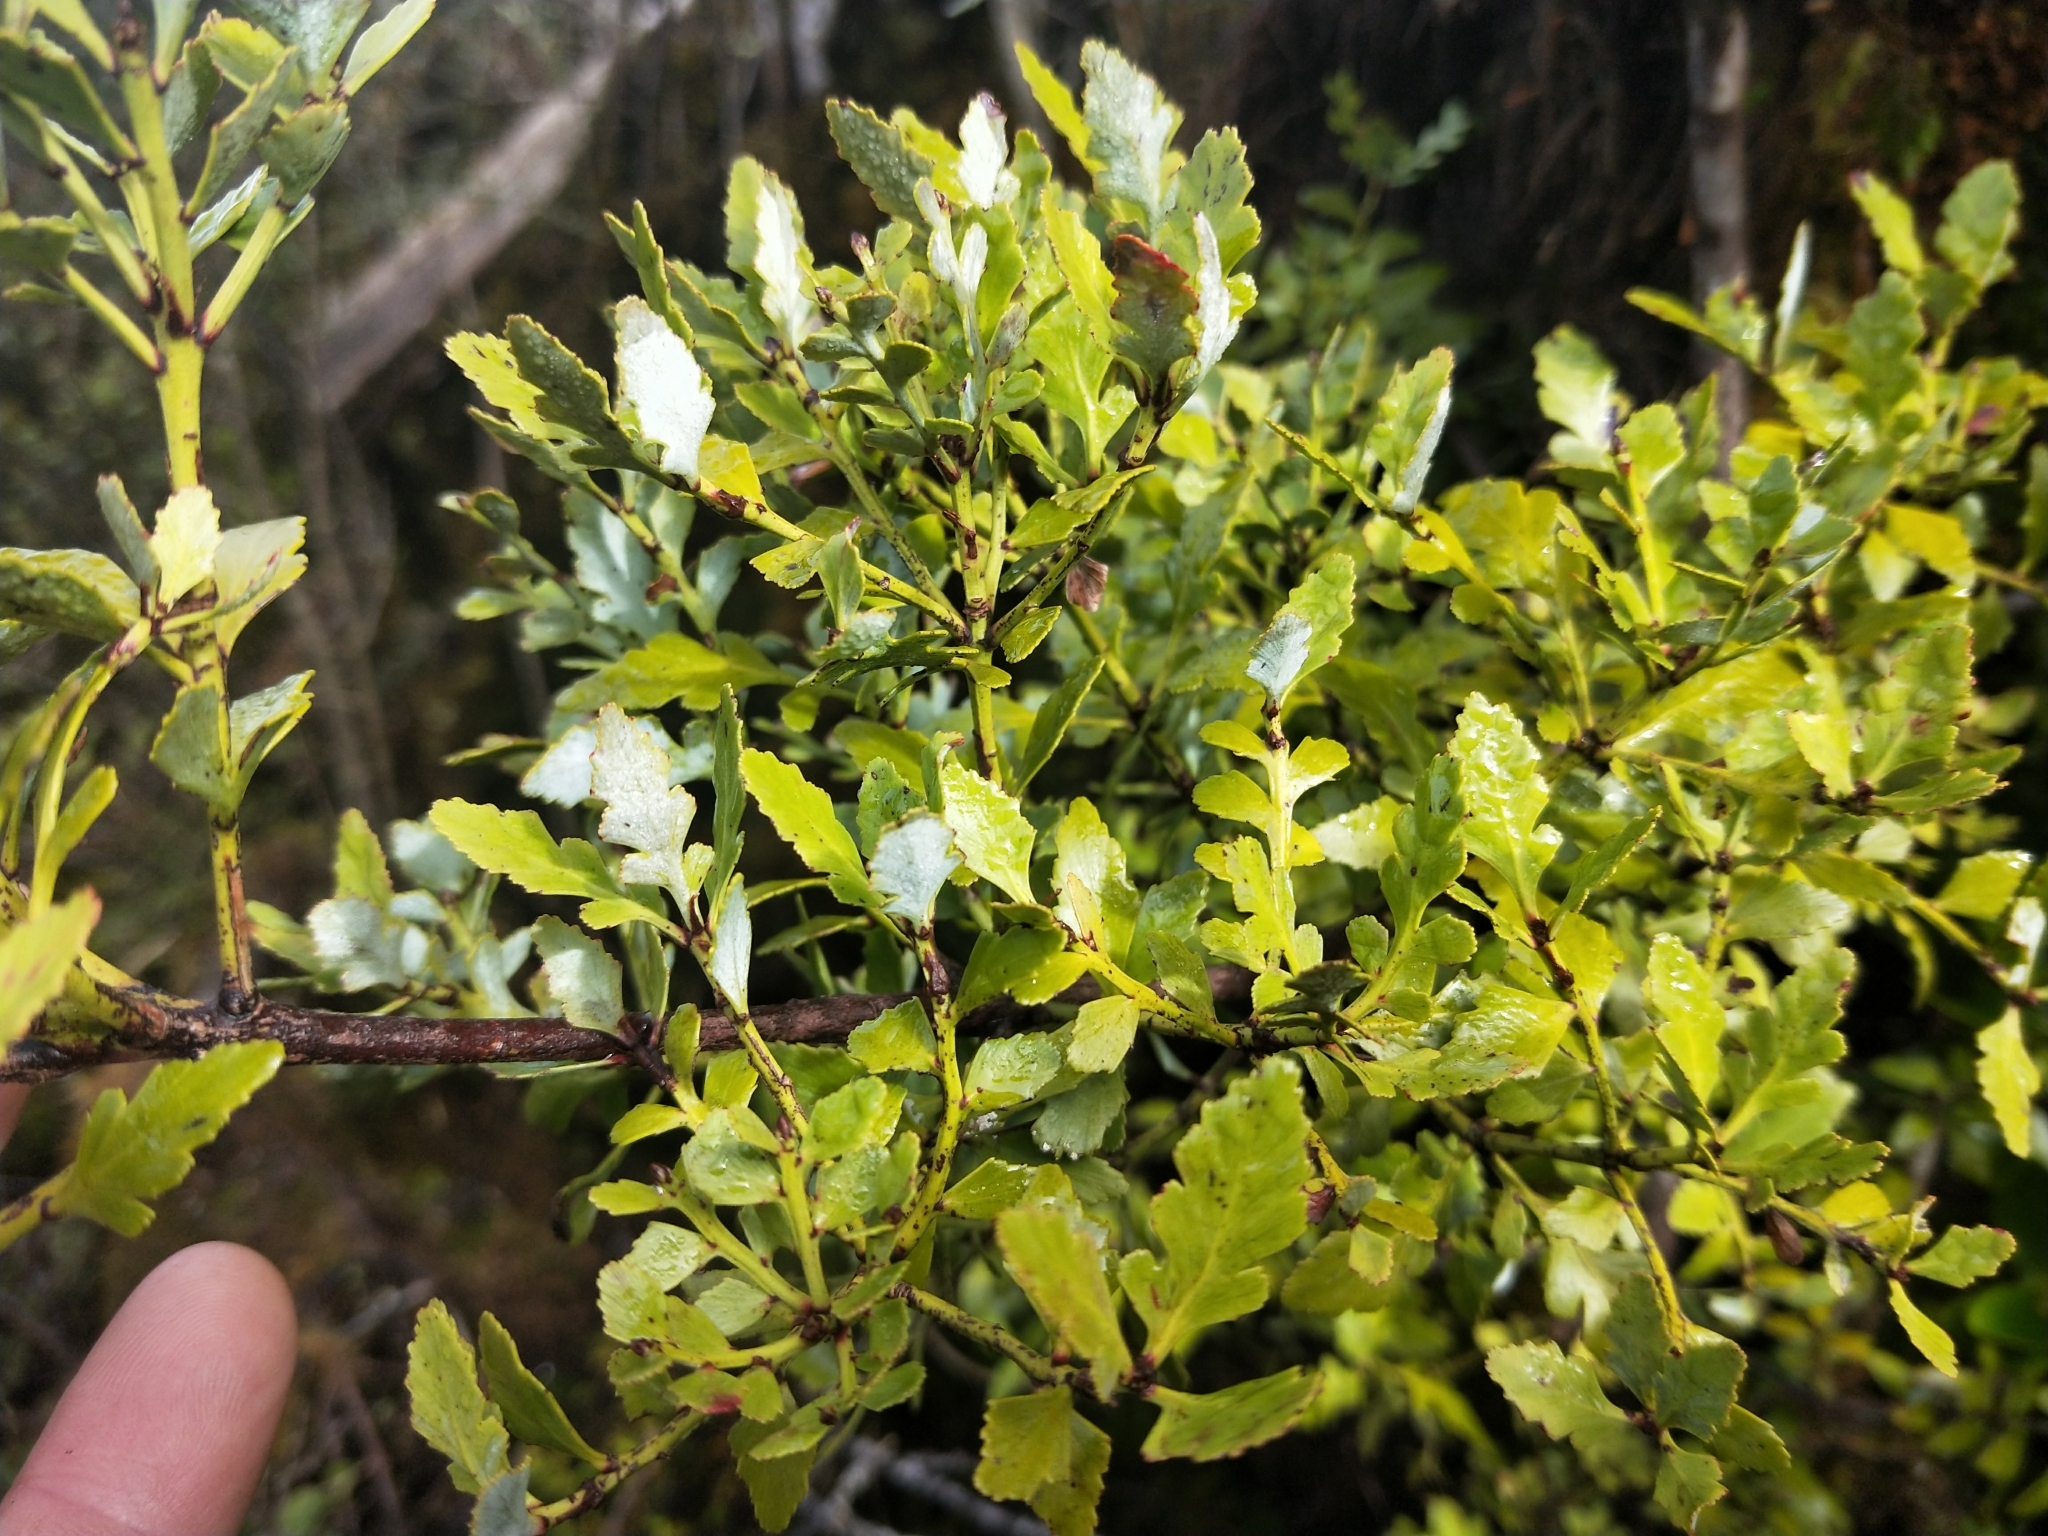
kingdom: Plantae
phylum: Tracheophyta
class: Pinopsida
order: Pinales
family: Phyllocladaceae
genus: Phyllocladus
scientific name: Phyllocladus trichomanoides
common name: Celery pine
